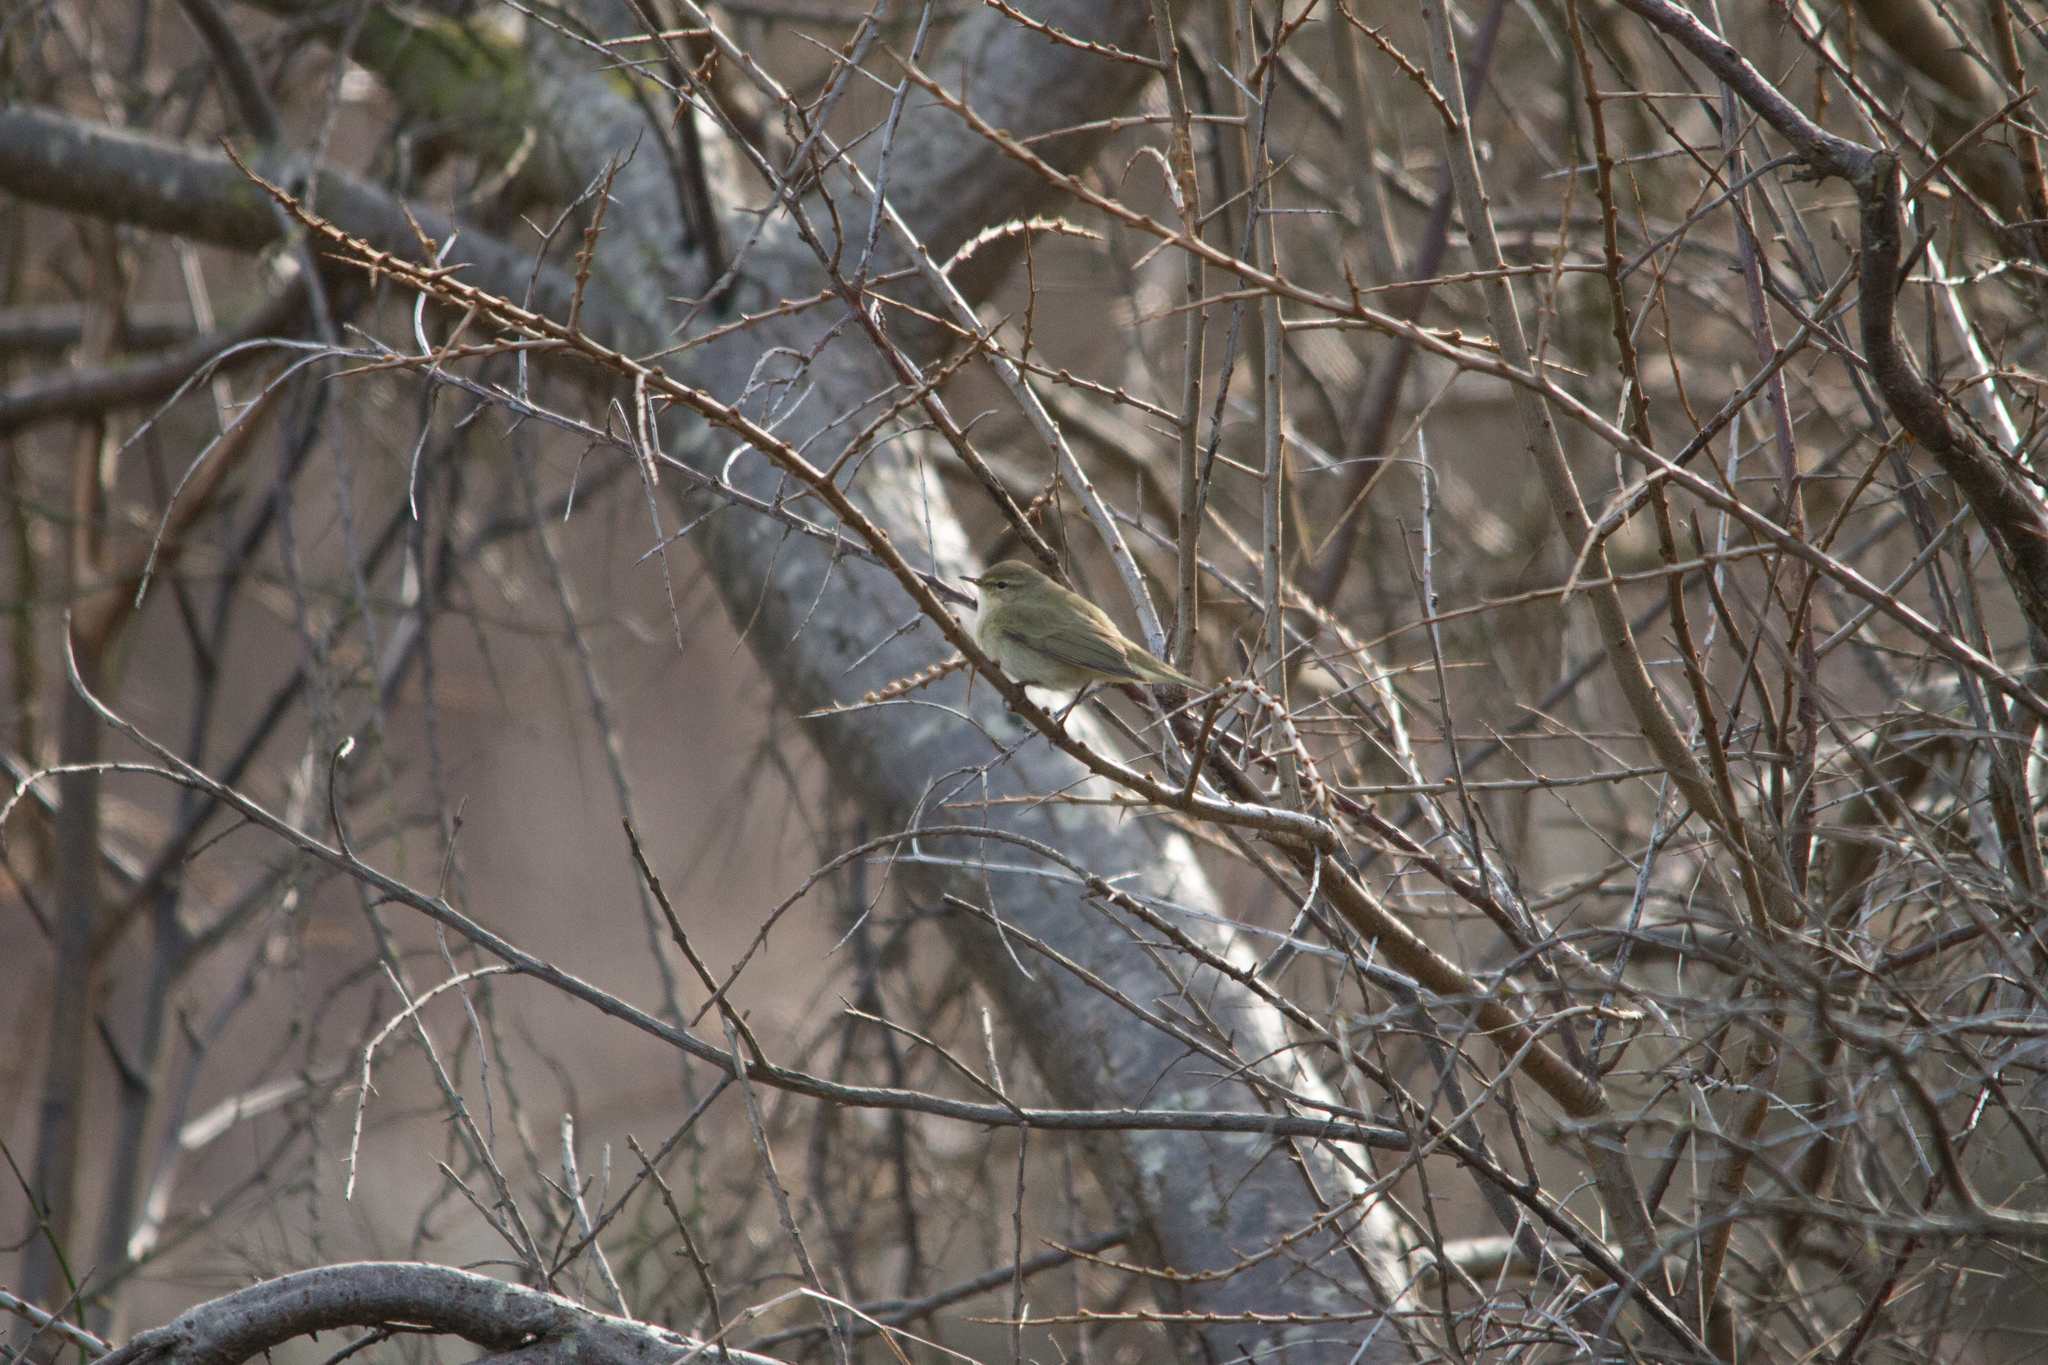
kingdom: Animalia
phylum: Chordata
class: Aves
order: Passeriformes
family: Phylloscopidae
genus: Phylloscopus
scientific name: Phylloscopus collybita
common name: Common chiffchaff
